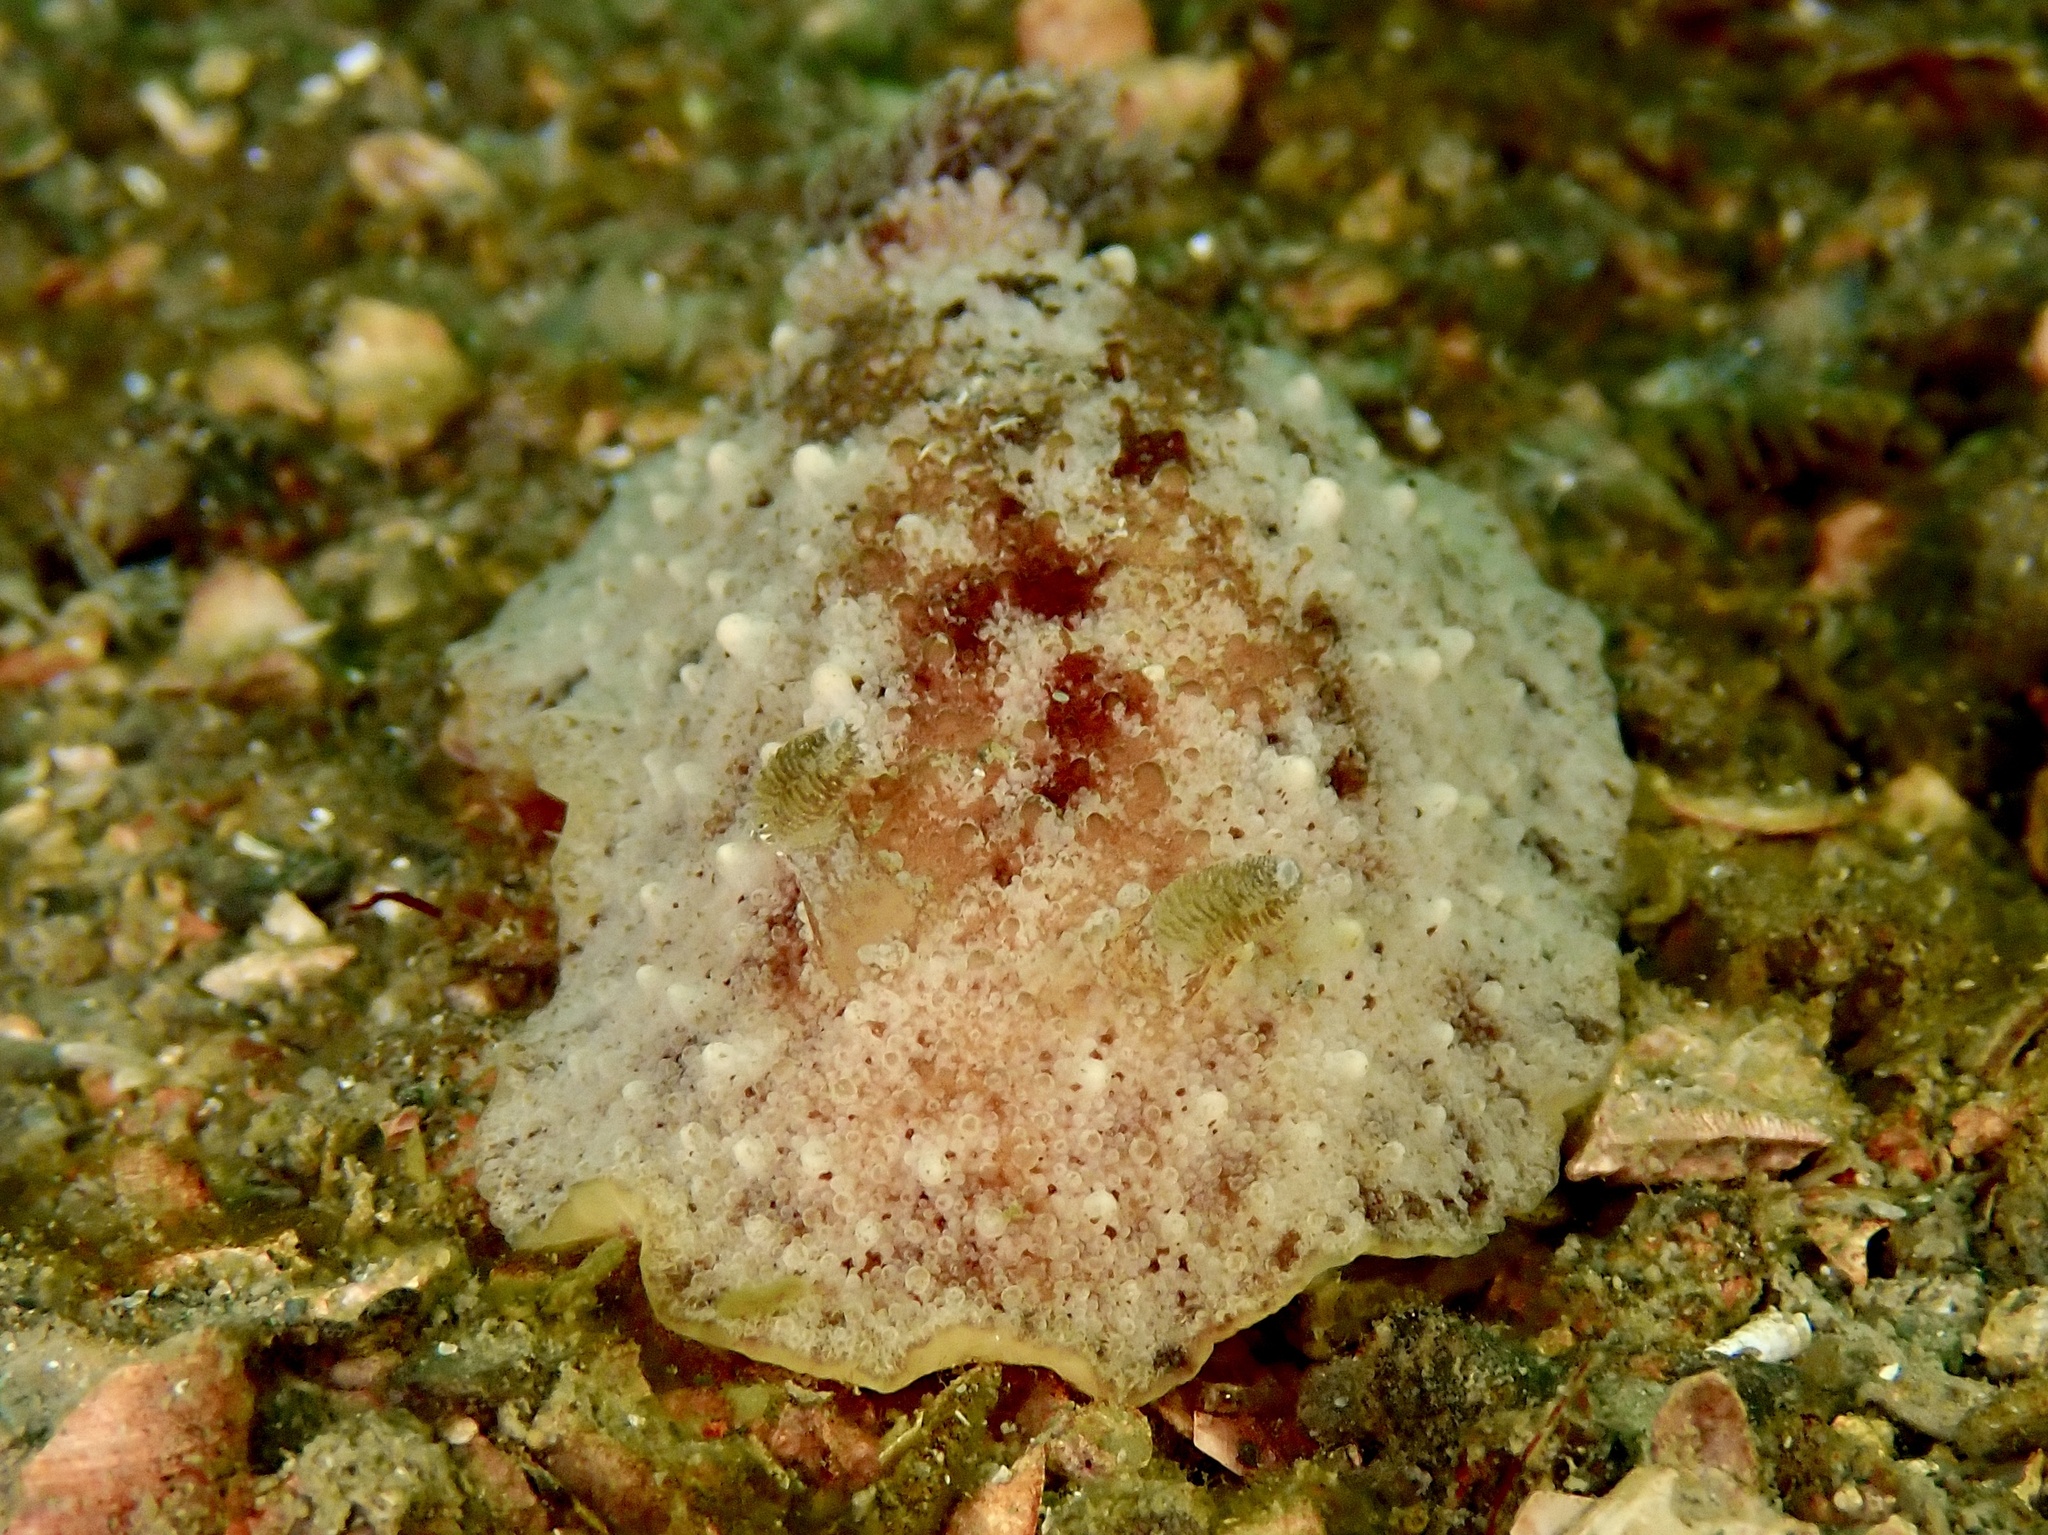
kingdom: Animalia
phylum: Mollusca
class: Gastropoda
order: Nudibranchia
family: Discodorididae
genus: Geitodoris
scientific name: Geitodoris planata
